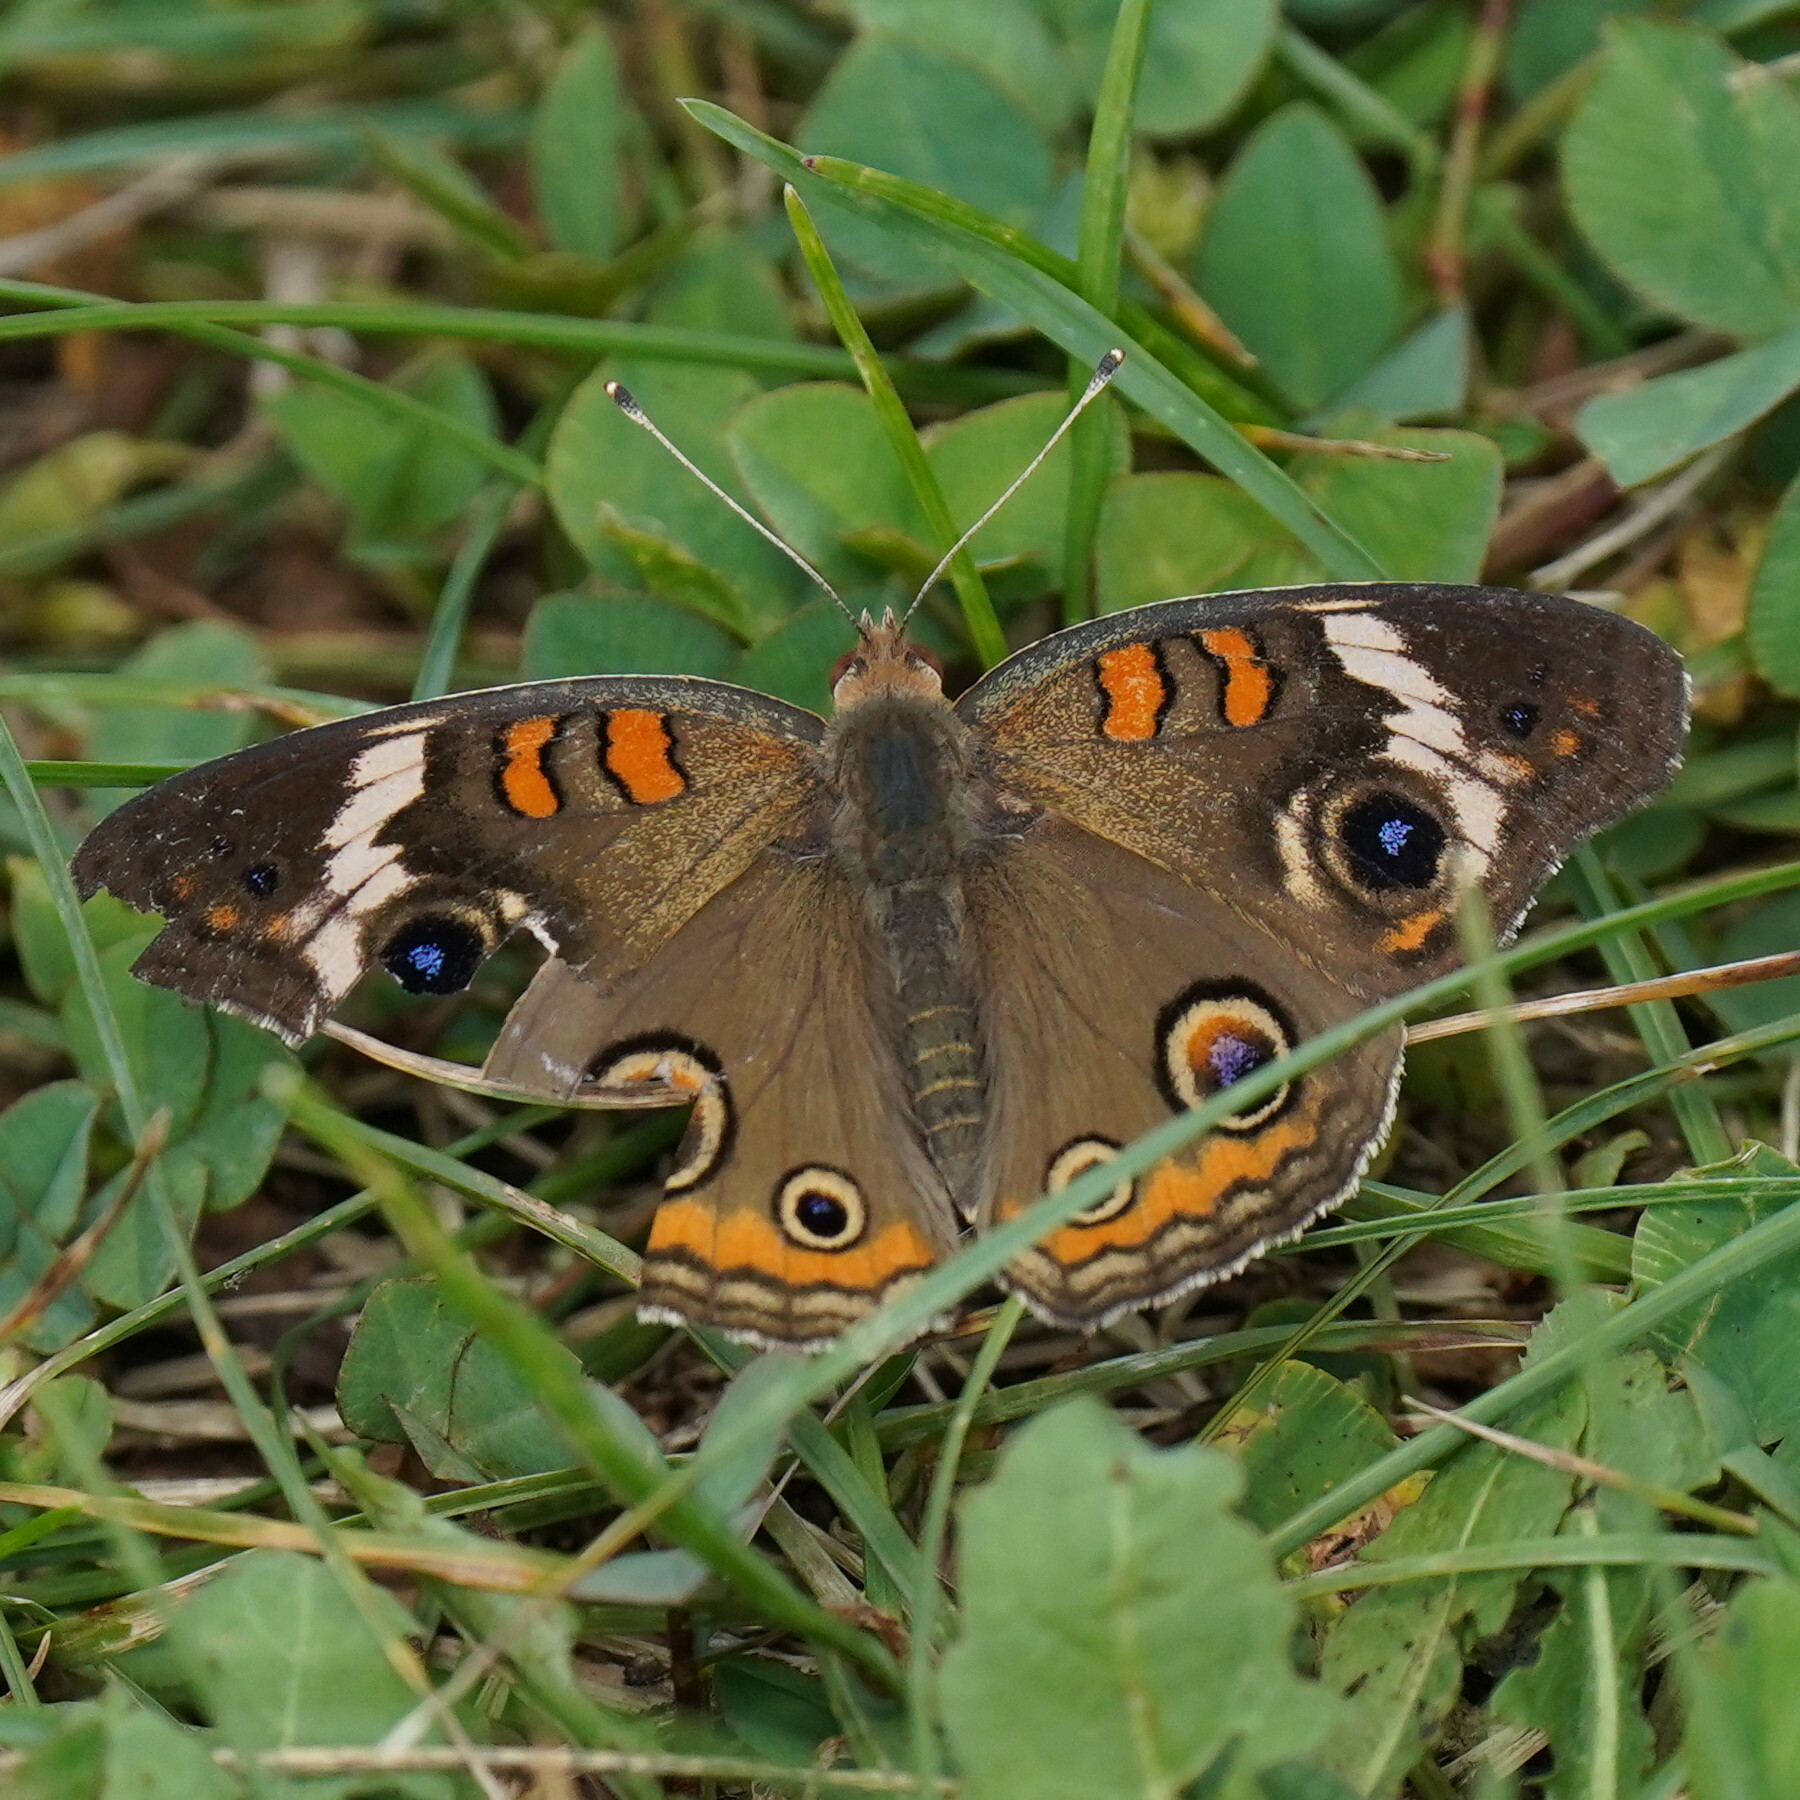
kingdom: Animalia
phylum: Arthropoda
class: Insecta
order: Lepidoptera
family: Nymphalidae
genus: Junonia
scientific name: Junonia coenia
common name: Common buckeye
